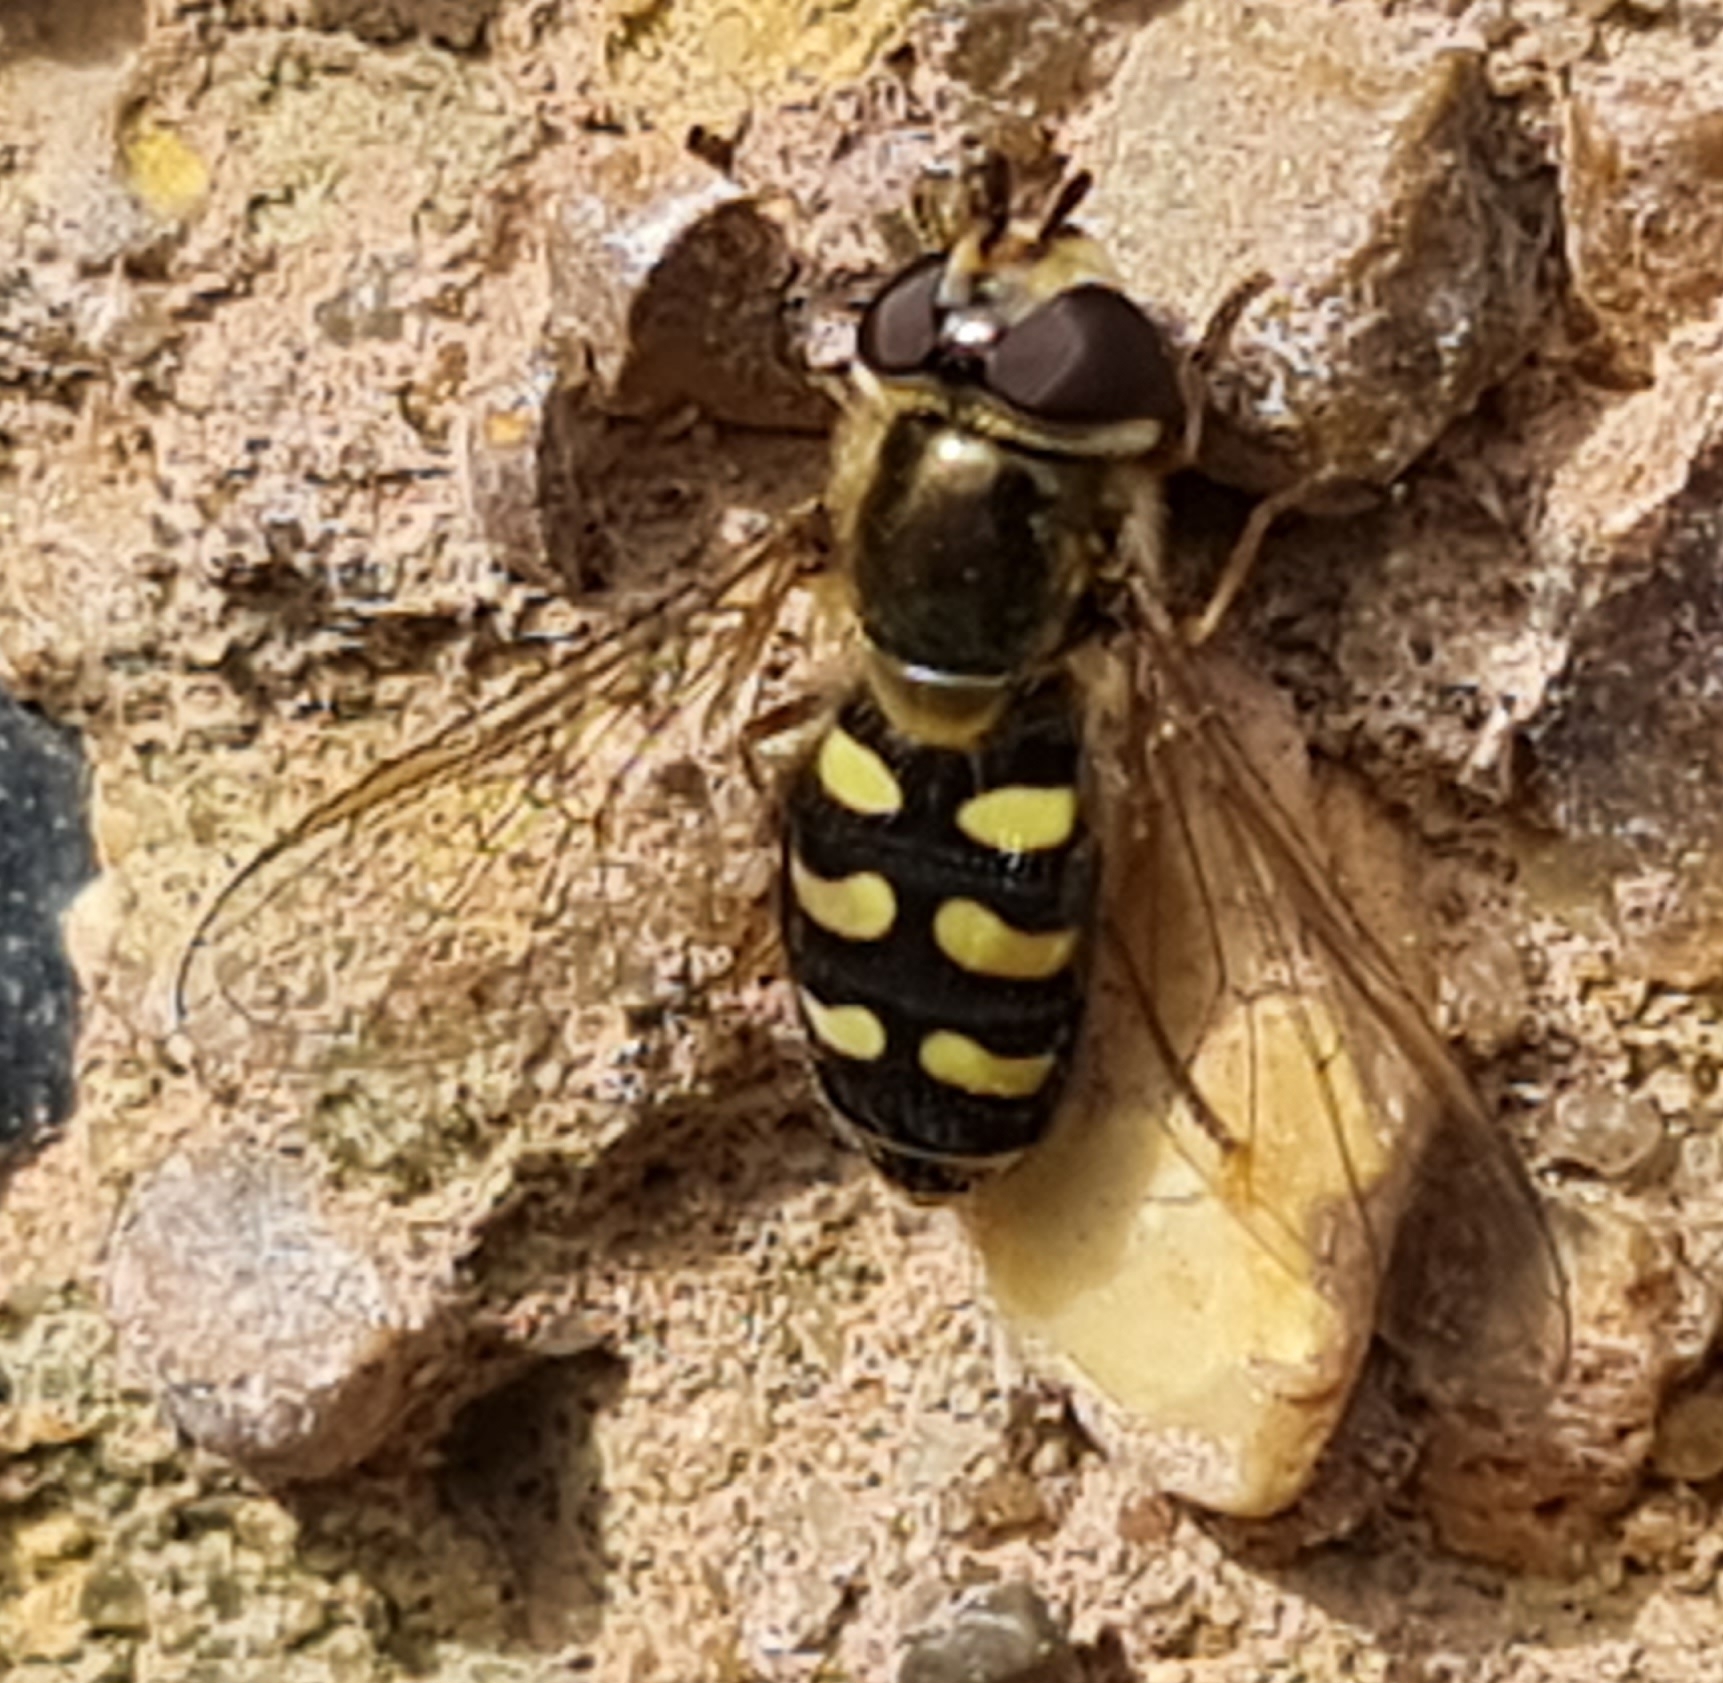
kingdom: Animalia
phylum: Arthropoda
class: Insecta
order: Diptera
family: Syrphidae
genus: Eupeodes
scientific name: Eupeodes luniger
